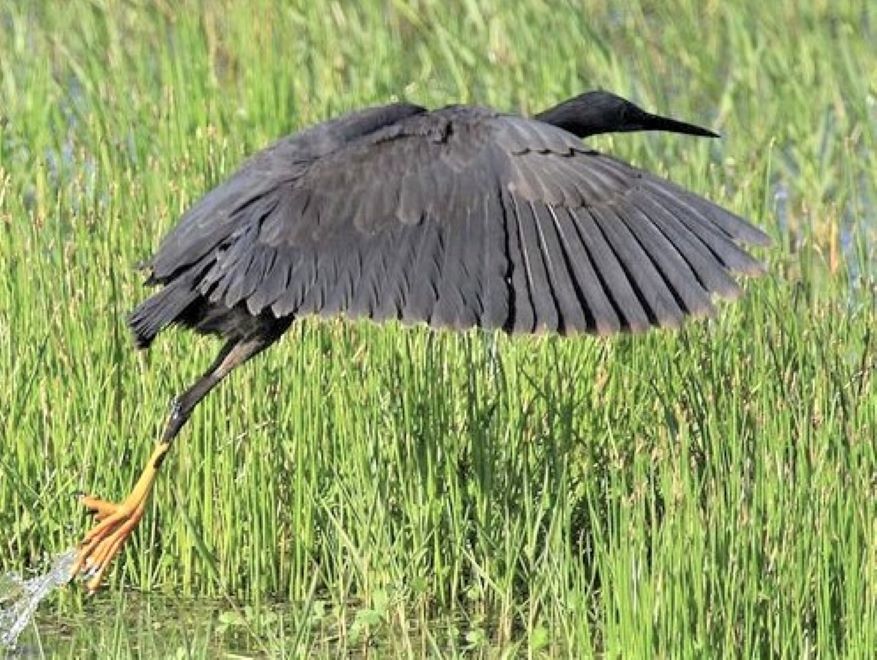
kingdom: Animalia
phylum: Chordata
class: Aves
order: Pelecaniformes
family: Ardeidae
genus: Egretta
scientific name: Egretta ardesiaca
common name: Black heron
